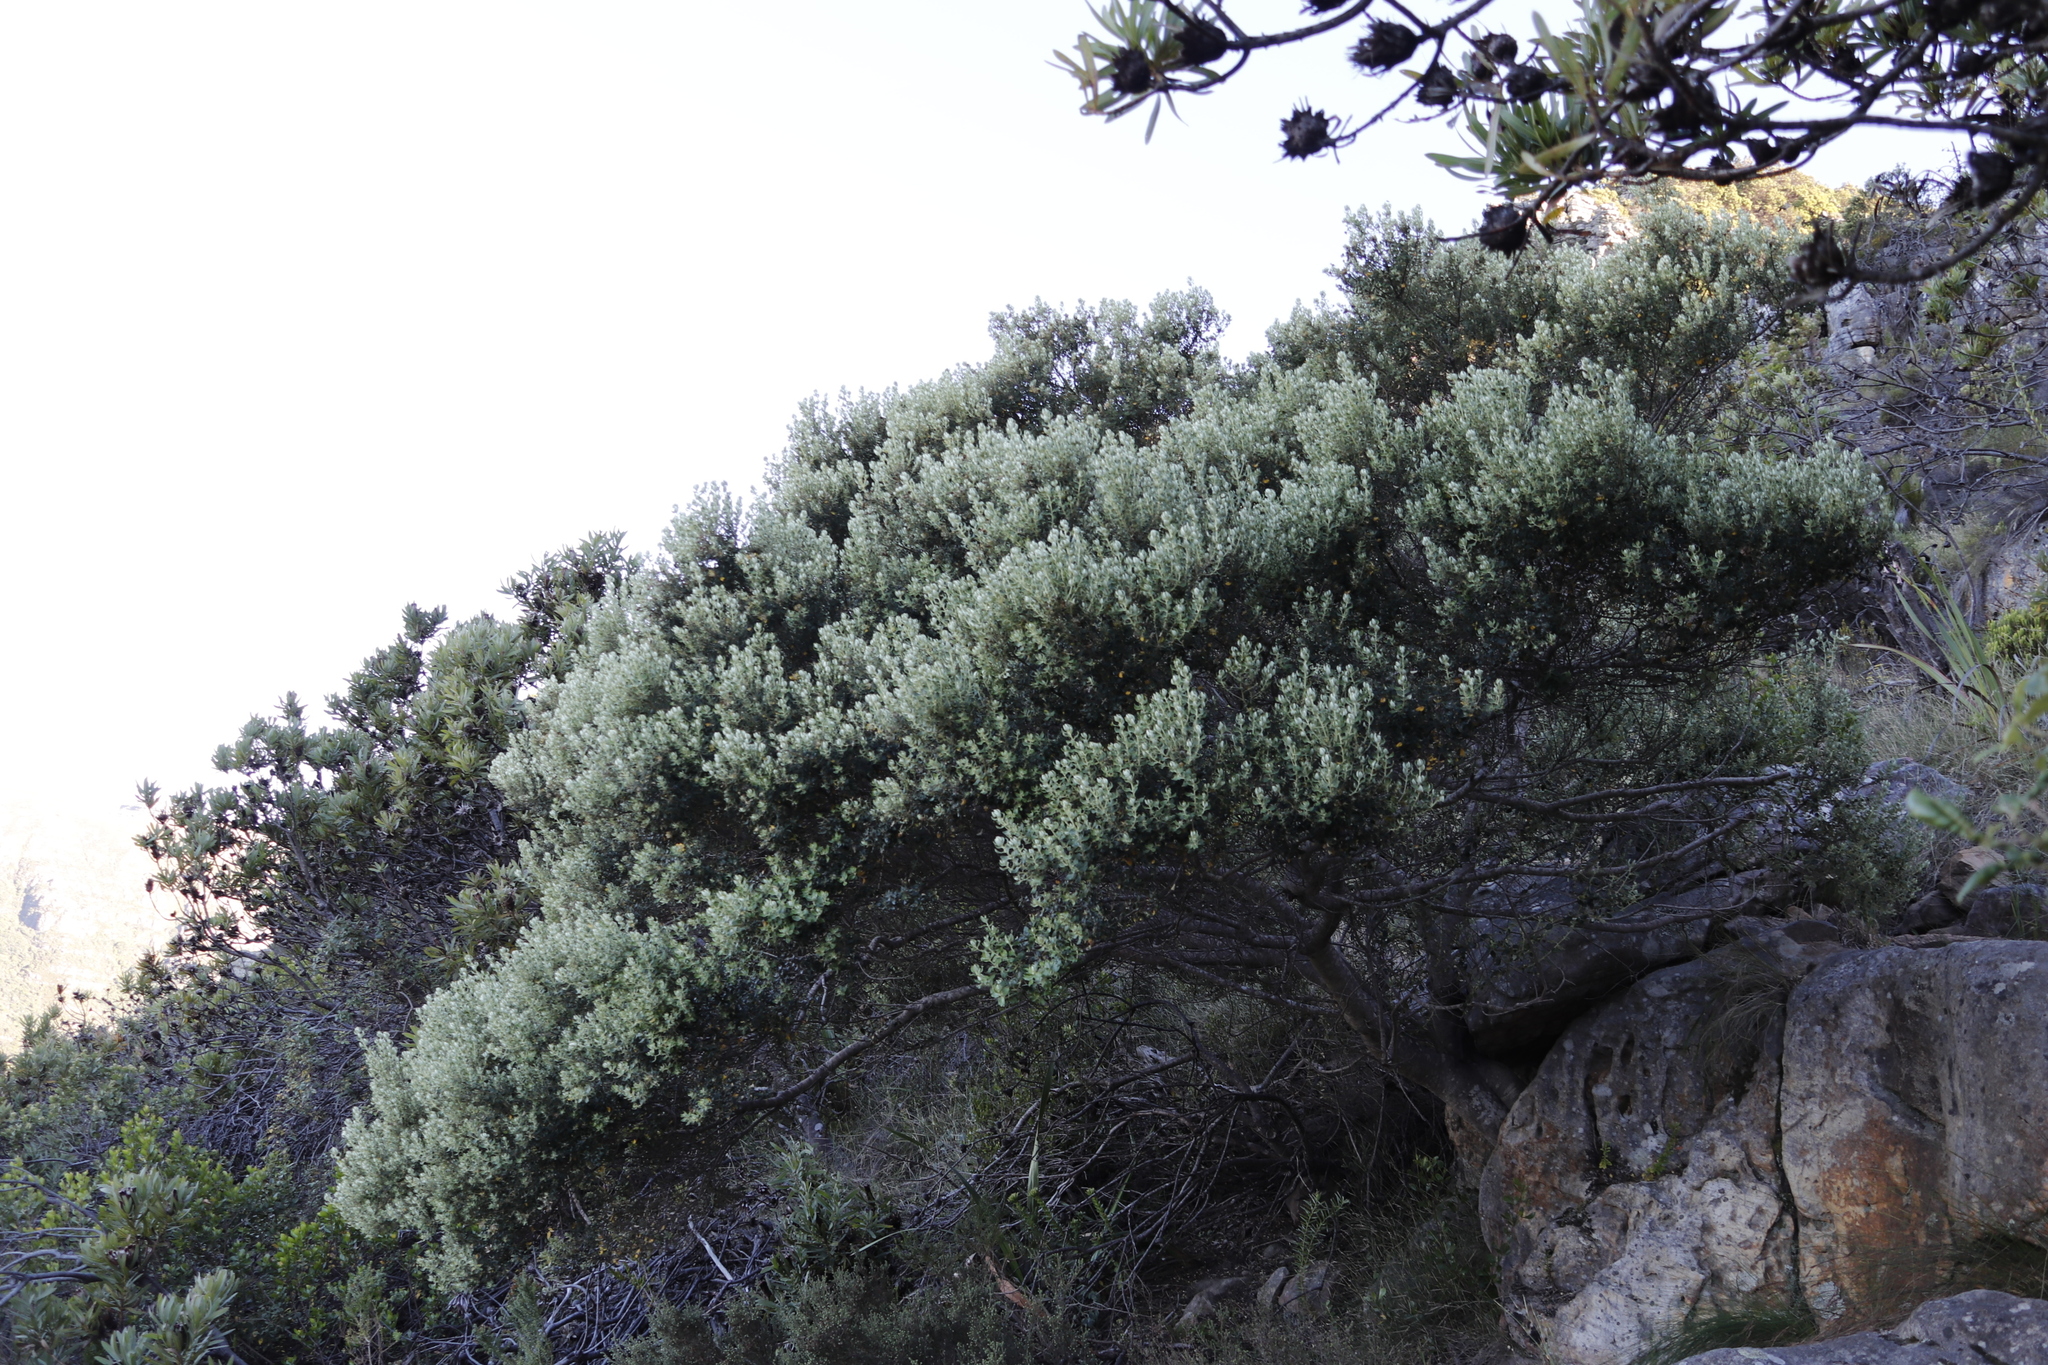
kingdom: Plantae
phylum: Tracheophyta
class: Magnoliopsida
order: Rosales
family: Rhamnaceae
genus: Phylica
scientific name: Phylica buxifolia
